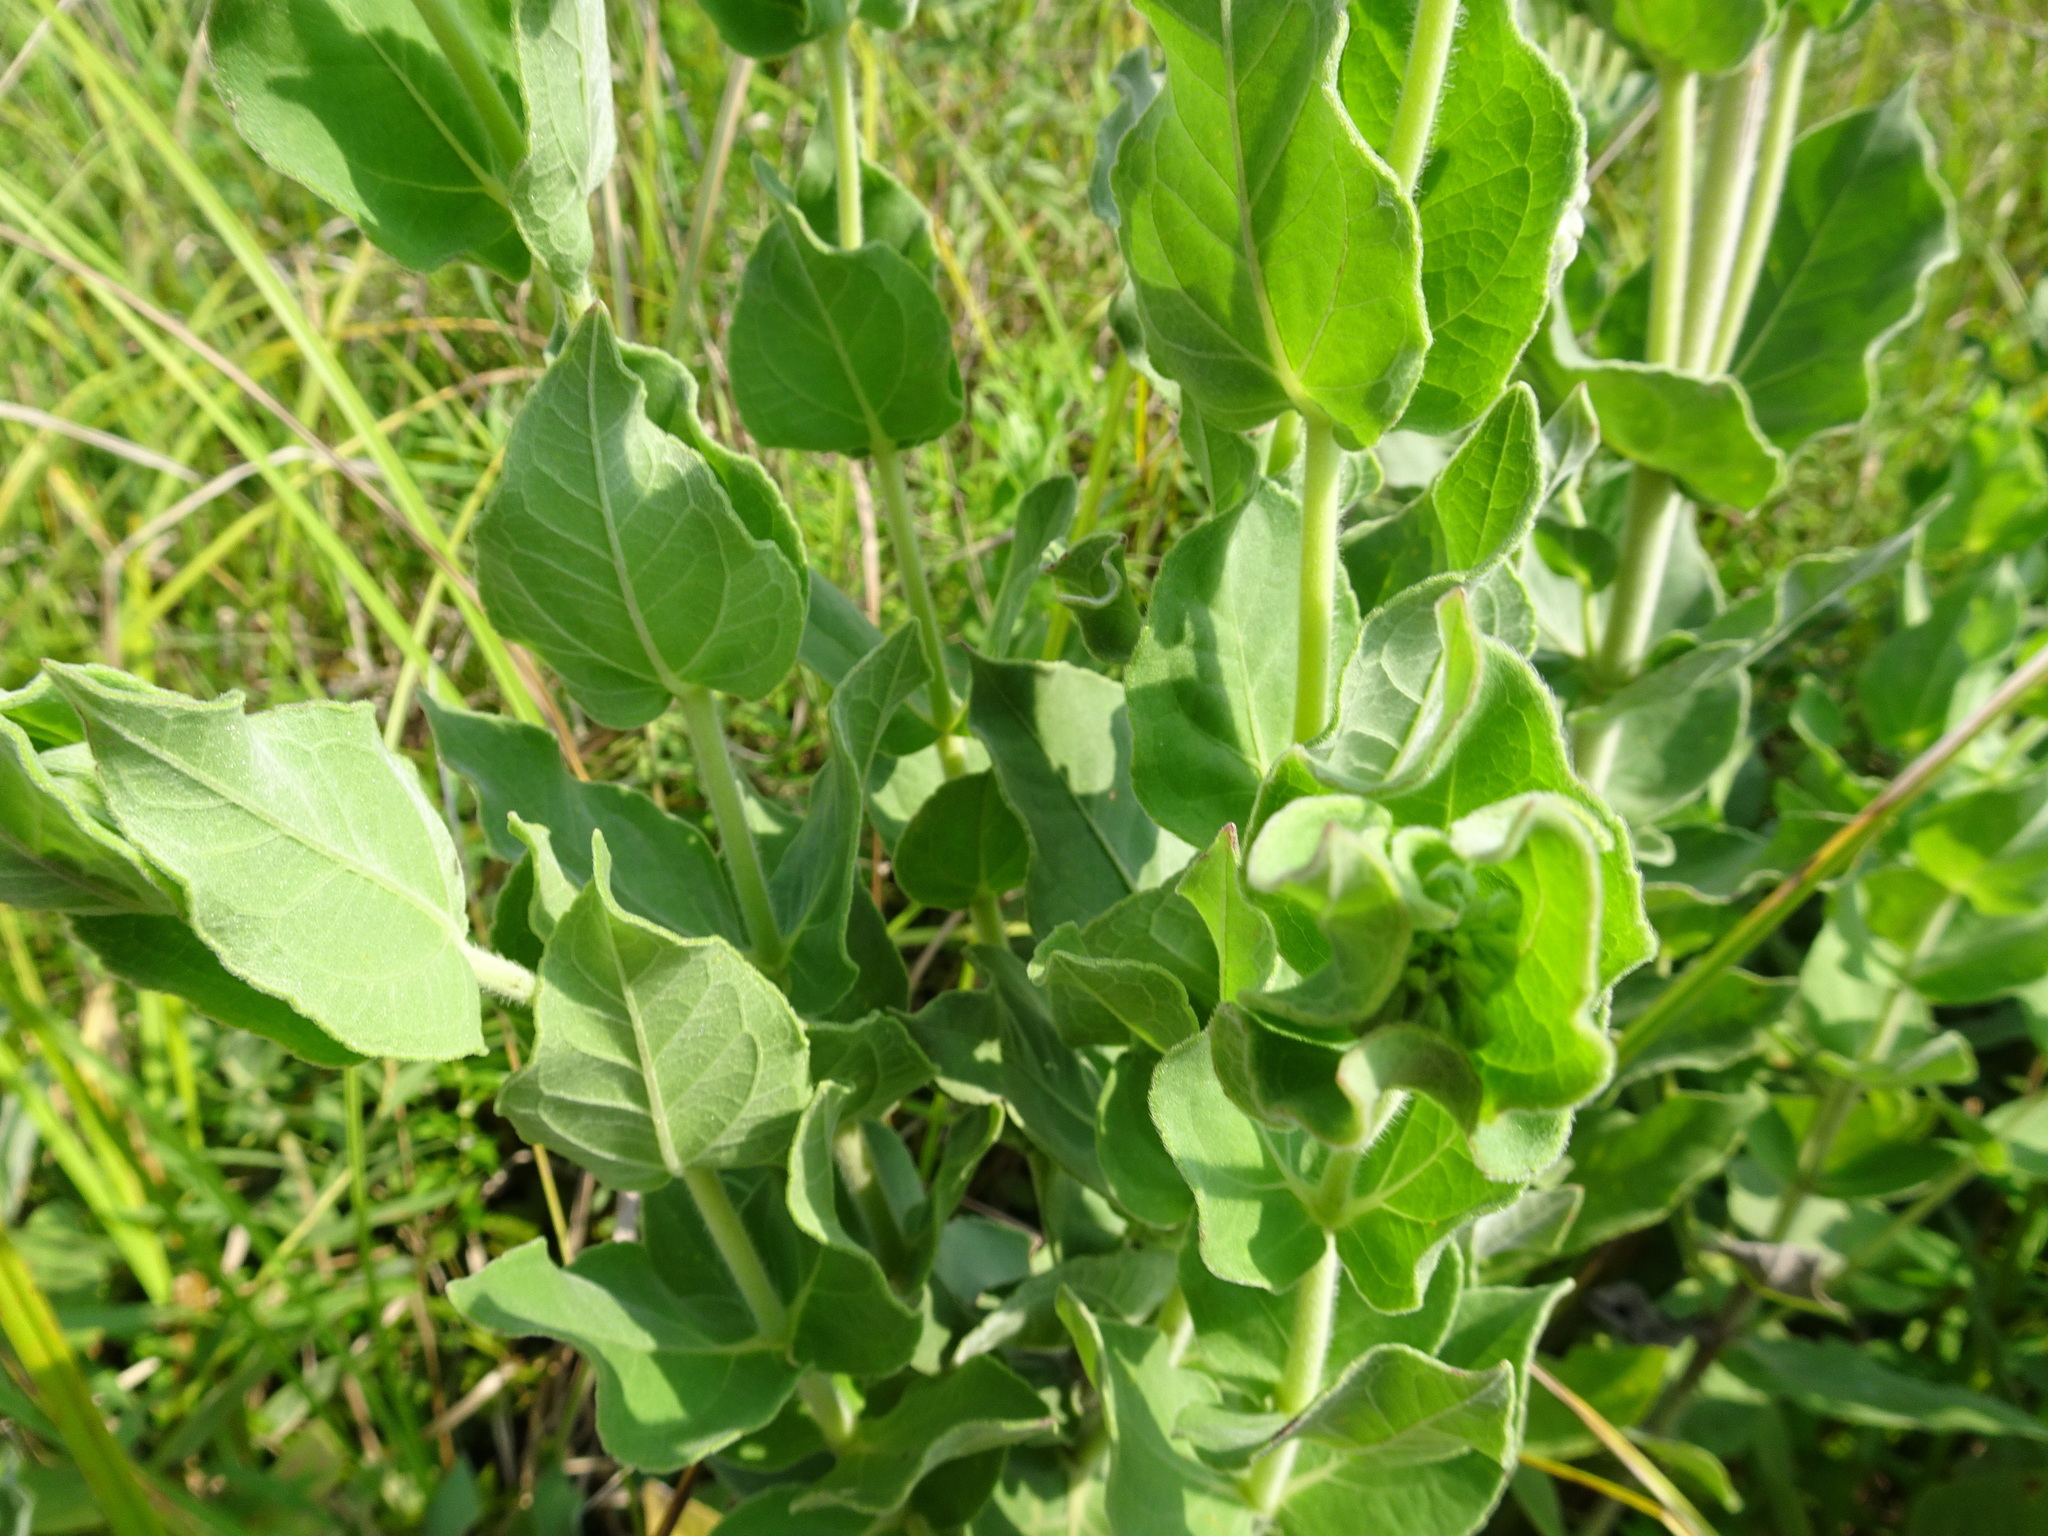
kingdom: Plantae
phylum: Tracheophyta
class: Magnoliopsida
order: Asterales
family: Asteraceae
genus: Helianthus
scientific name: Helianthus mollis
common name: Ashy sunflower
